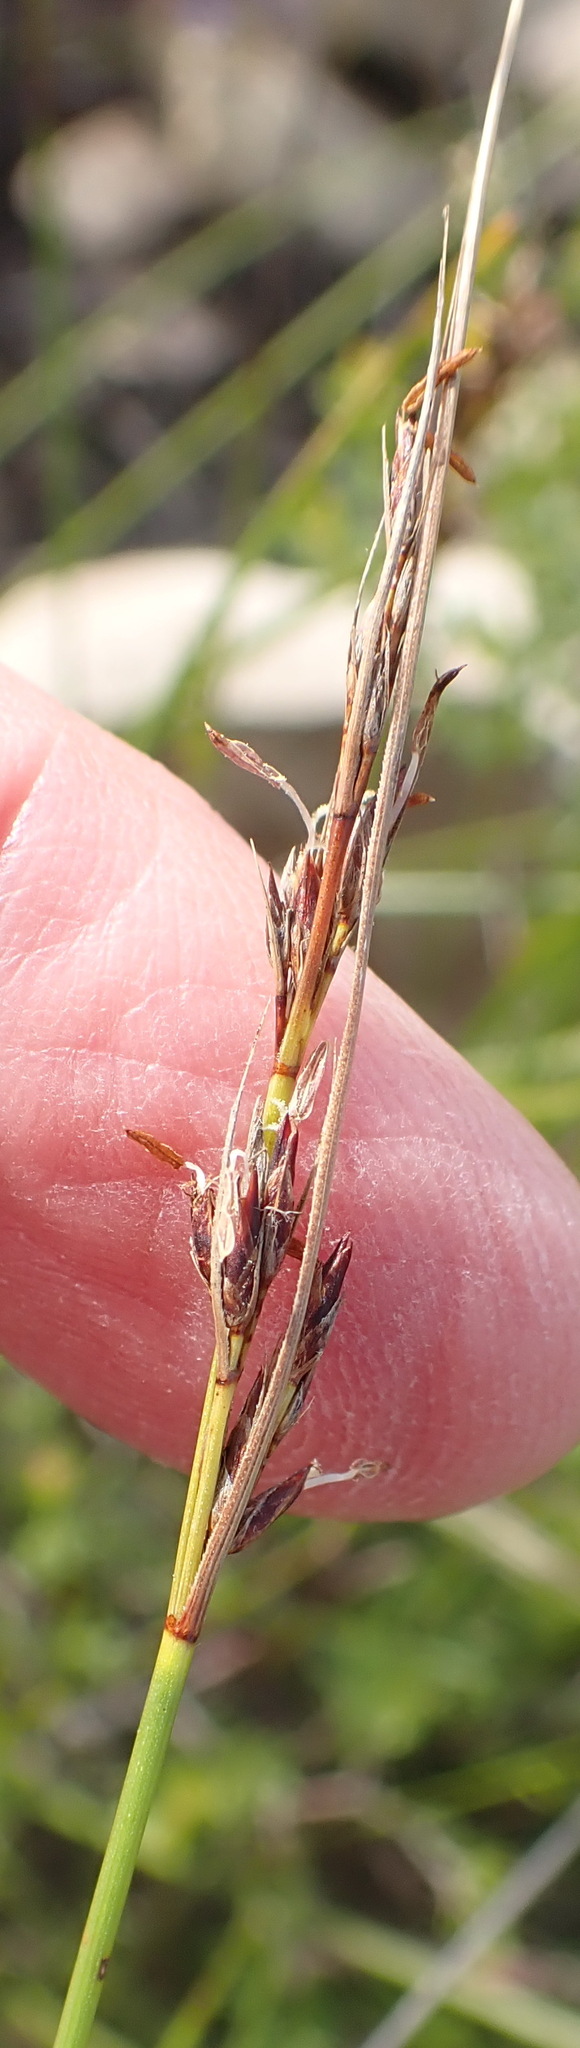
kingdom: Plantae
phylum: Tracheophyta
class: Liliopsida
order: Poales
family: Cyperaceae
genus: Schoenus
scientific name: Schoenus graciliculmis
